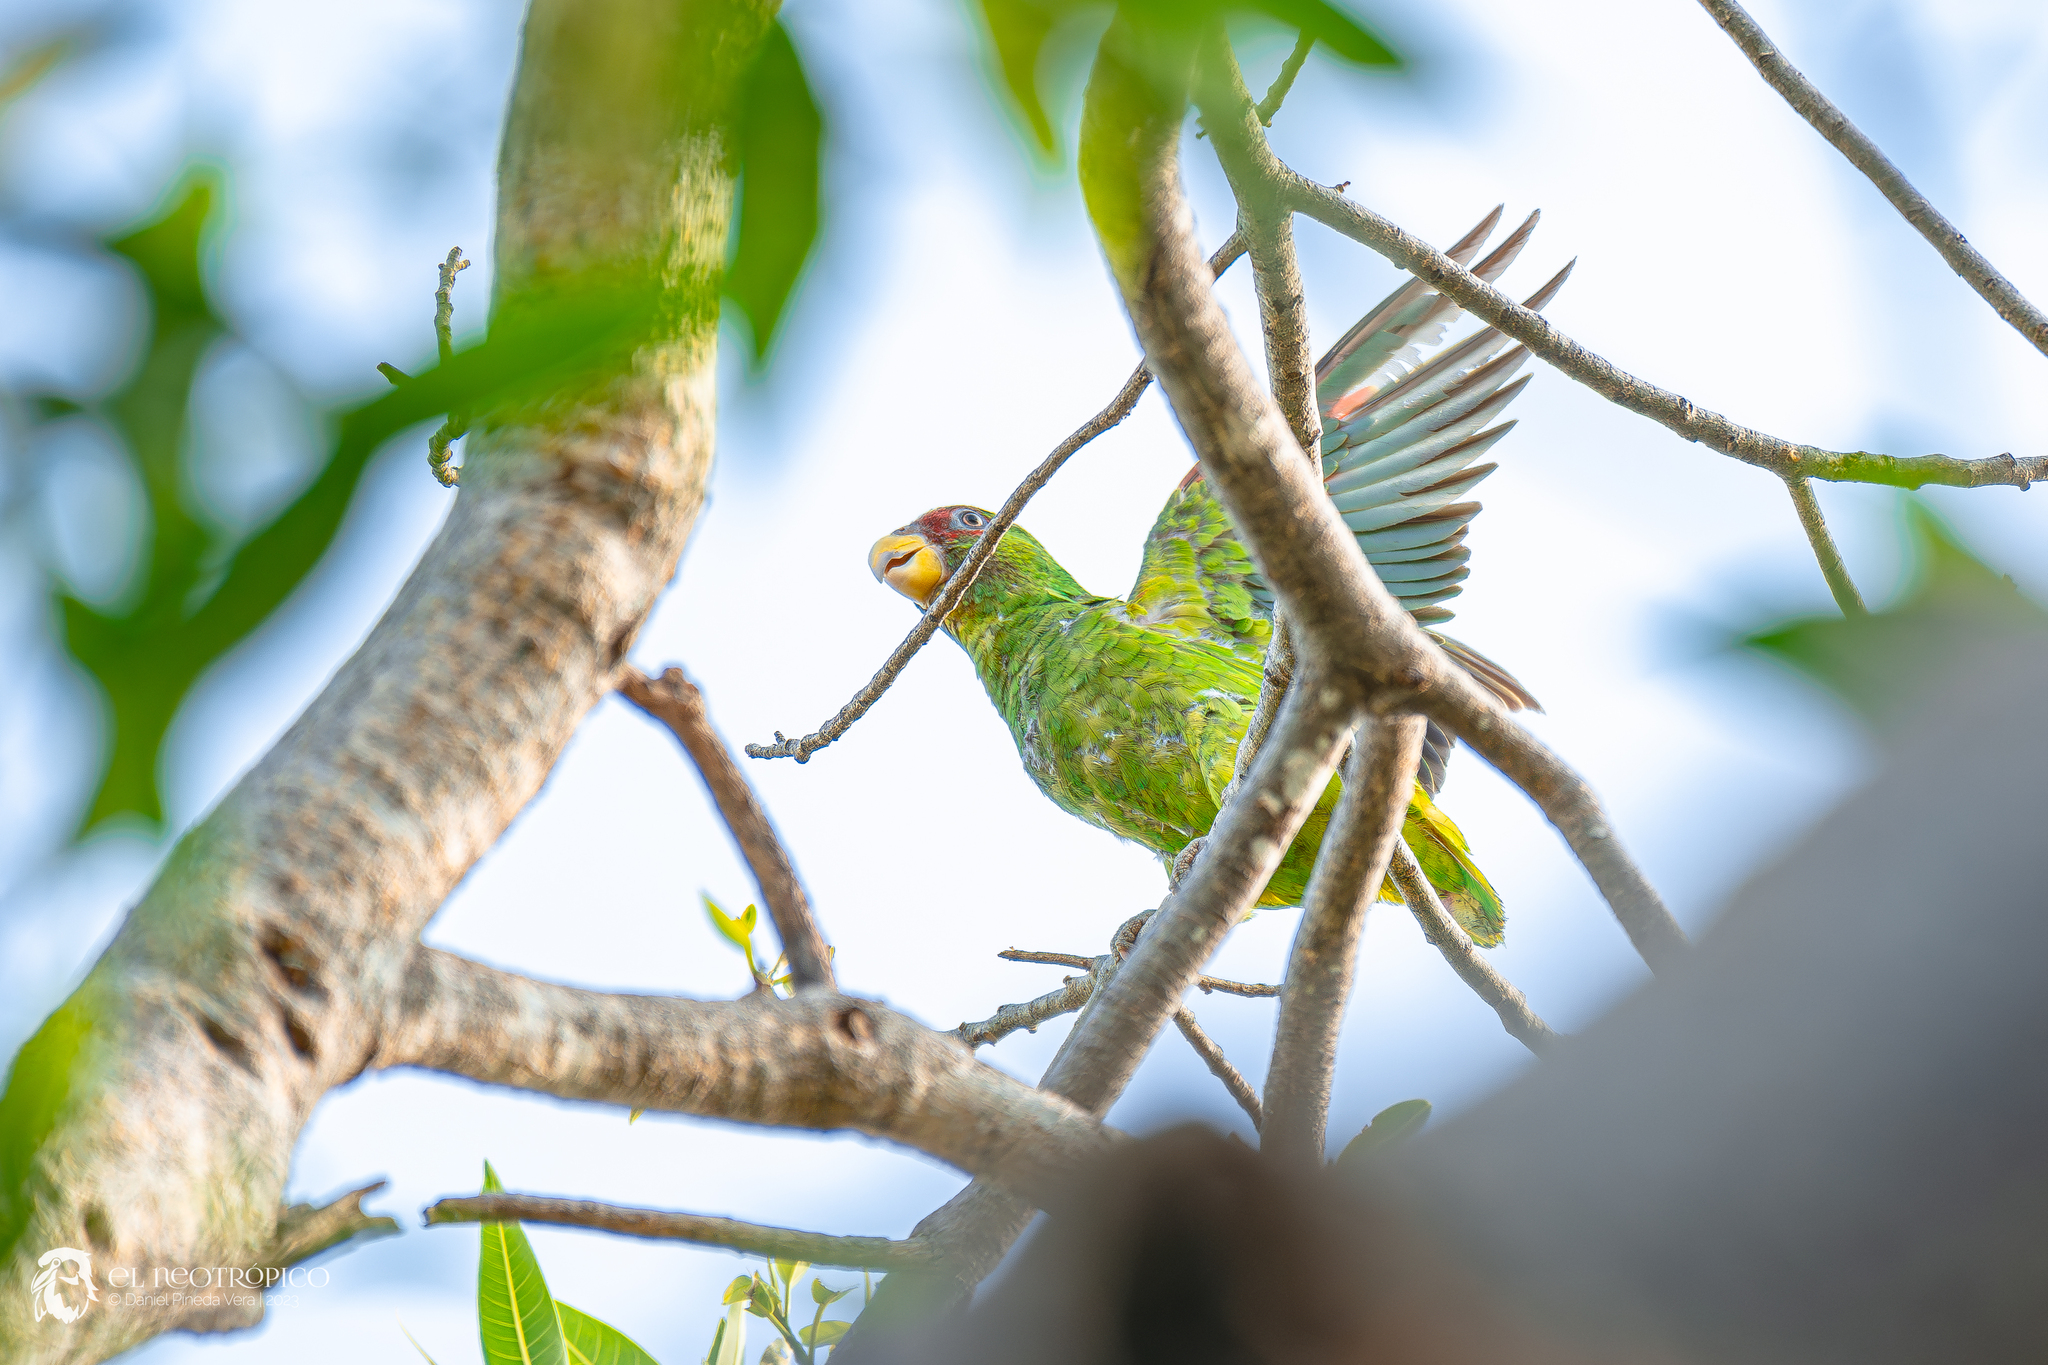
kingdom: Animalia
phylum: Chordata
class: Aves
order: Psittaciformes
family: Psittacidae
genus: Amazona
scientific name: Amazona albifrons
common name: White-fronted amazon
